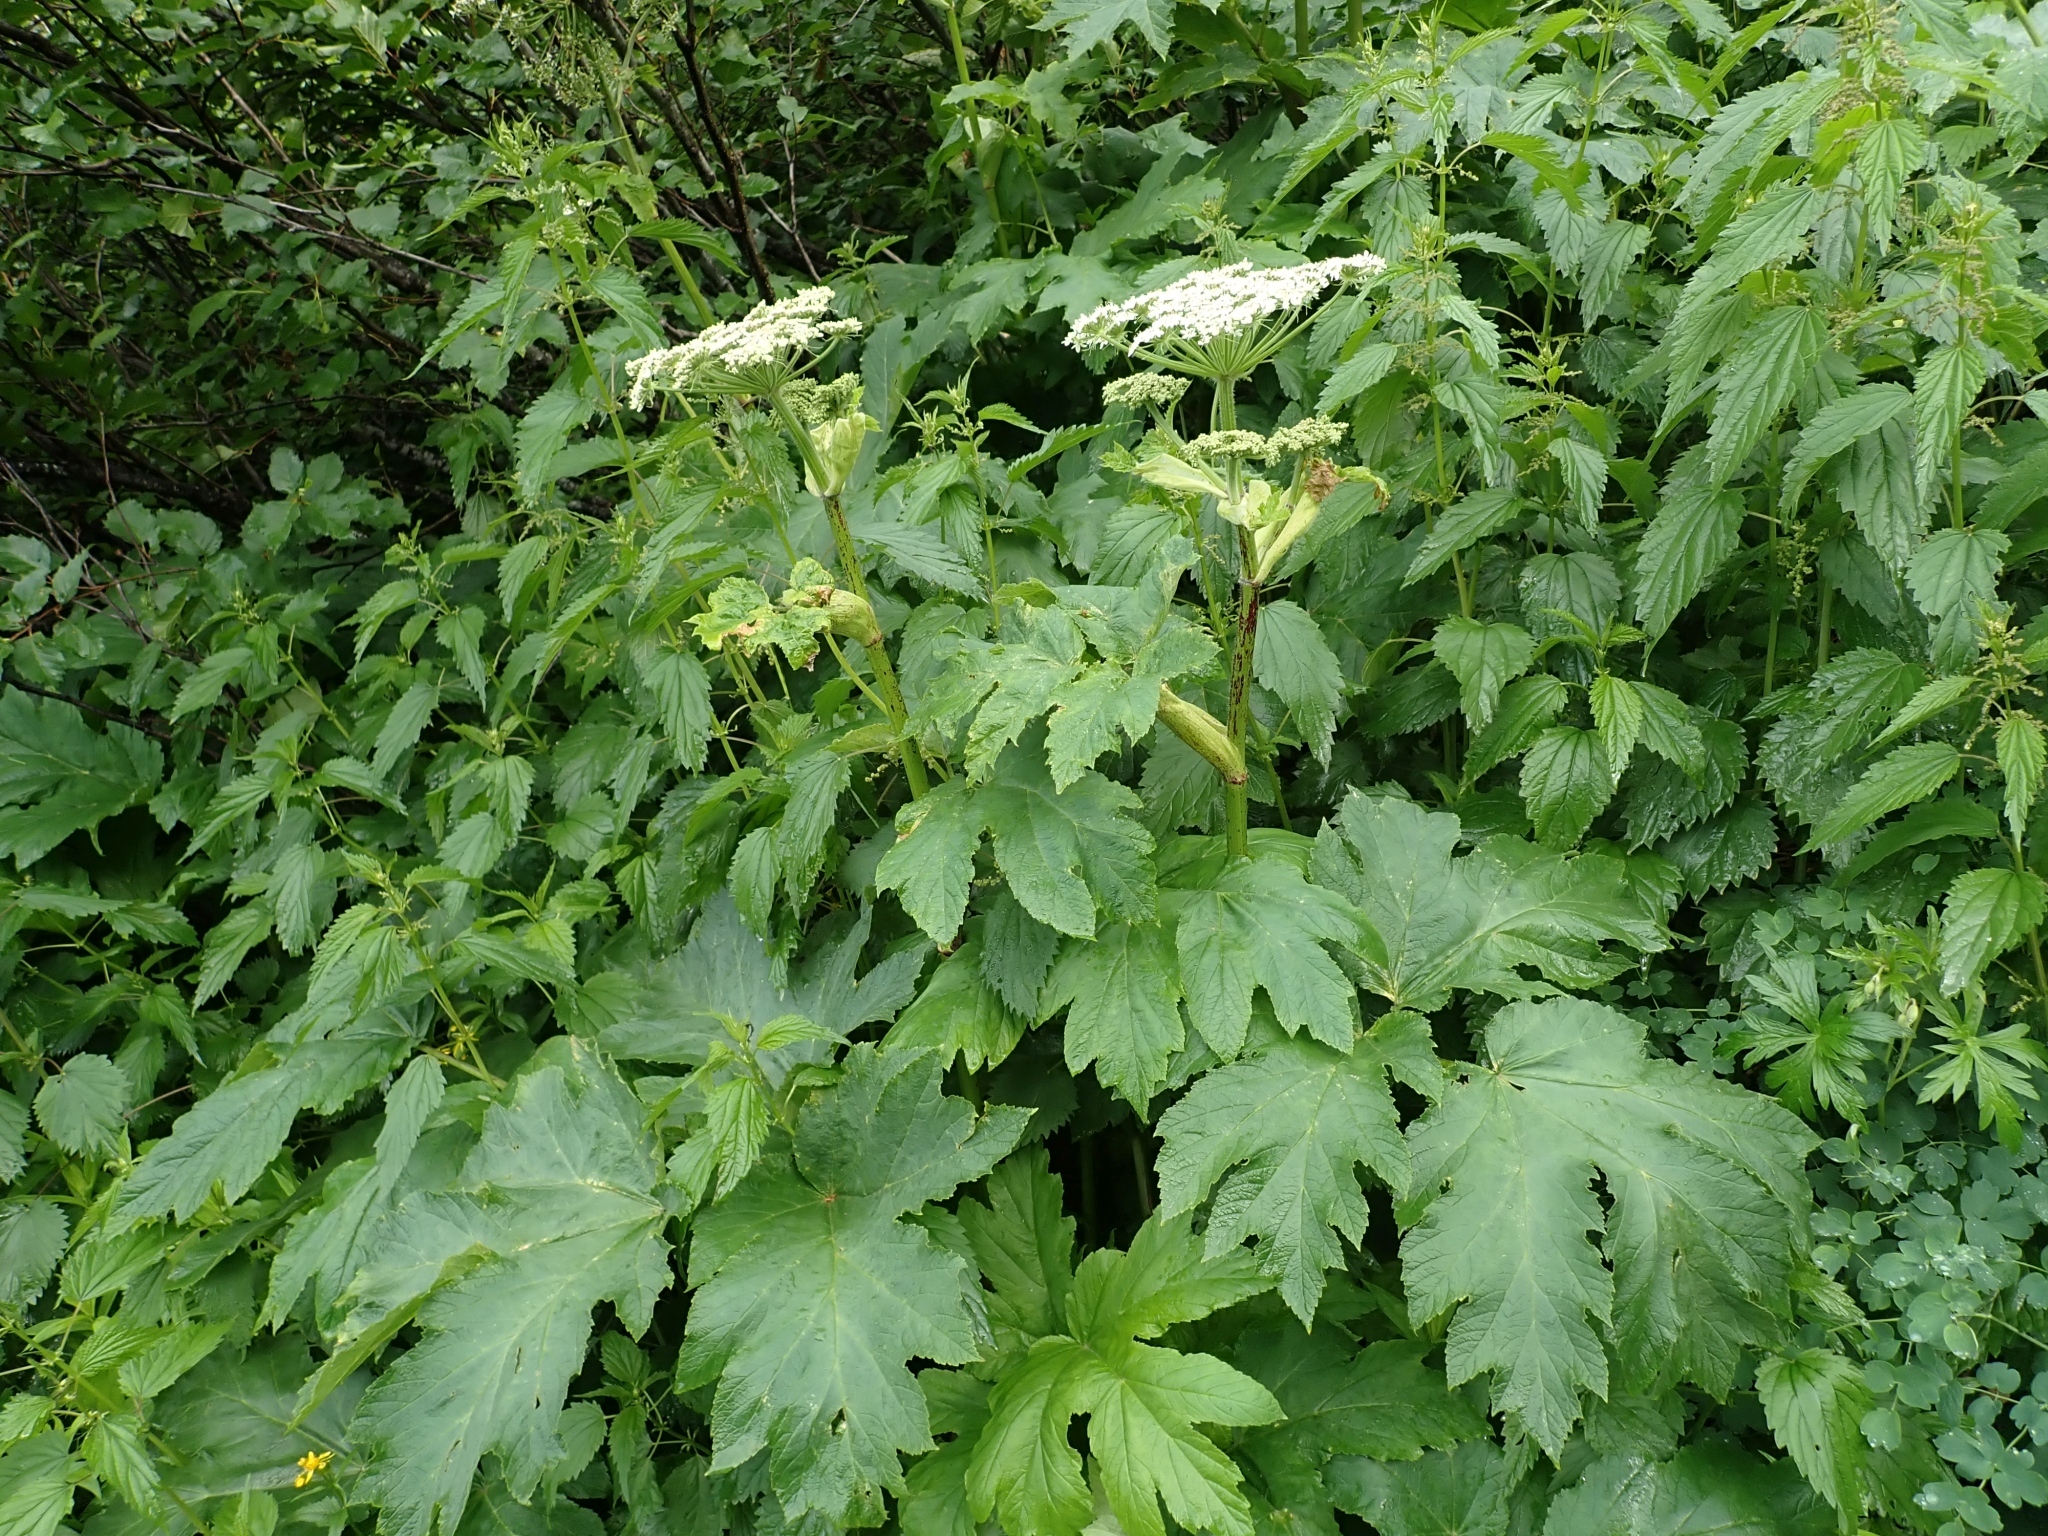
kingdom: Plantae
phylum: Tracheophyta
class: Magnoliopsida
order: Apiales
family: Apiaceae
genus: Heracleum
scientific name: Heracleum maximum
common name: American cow parsnip
